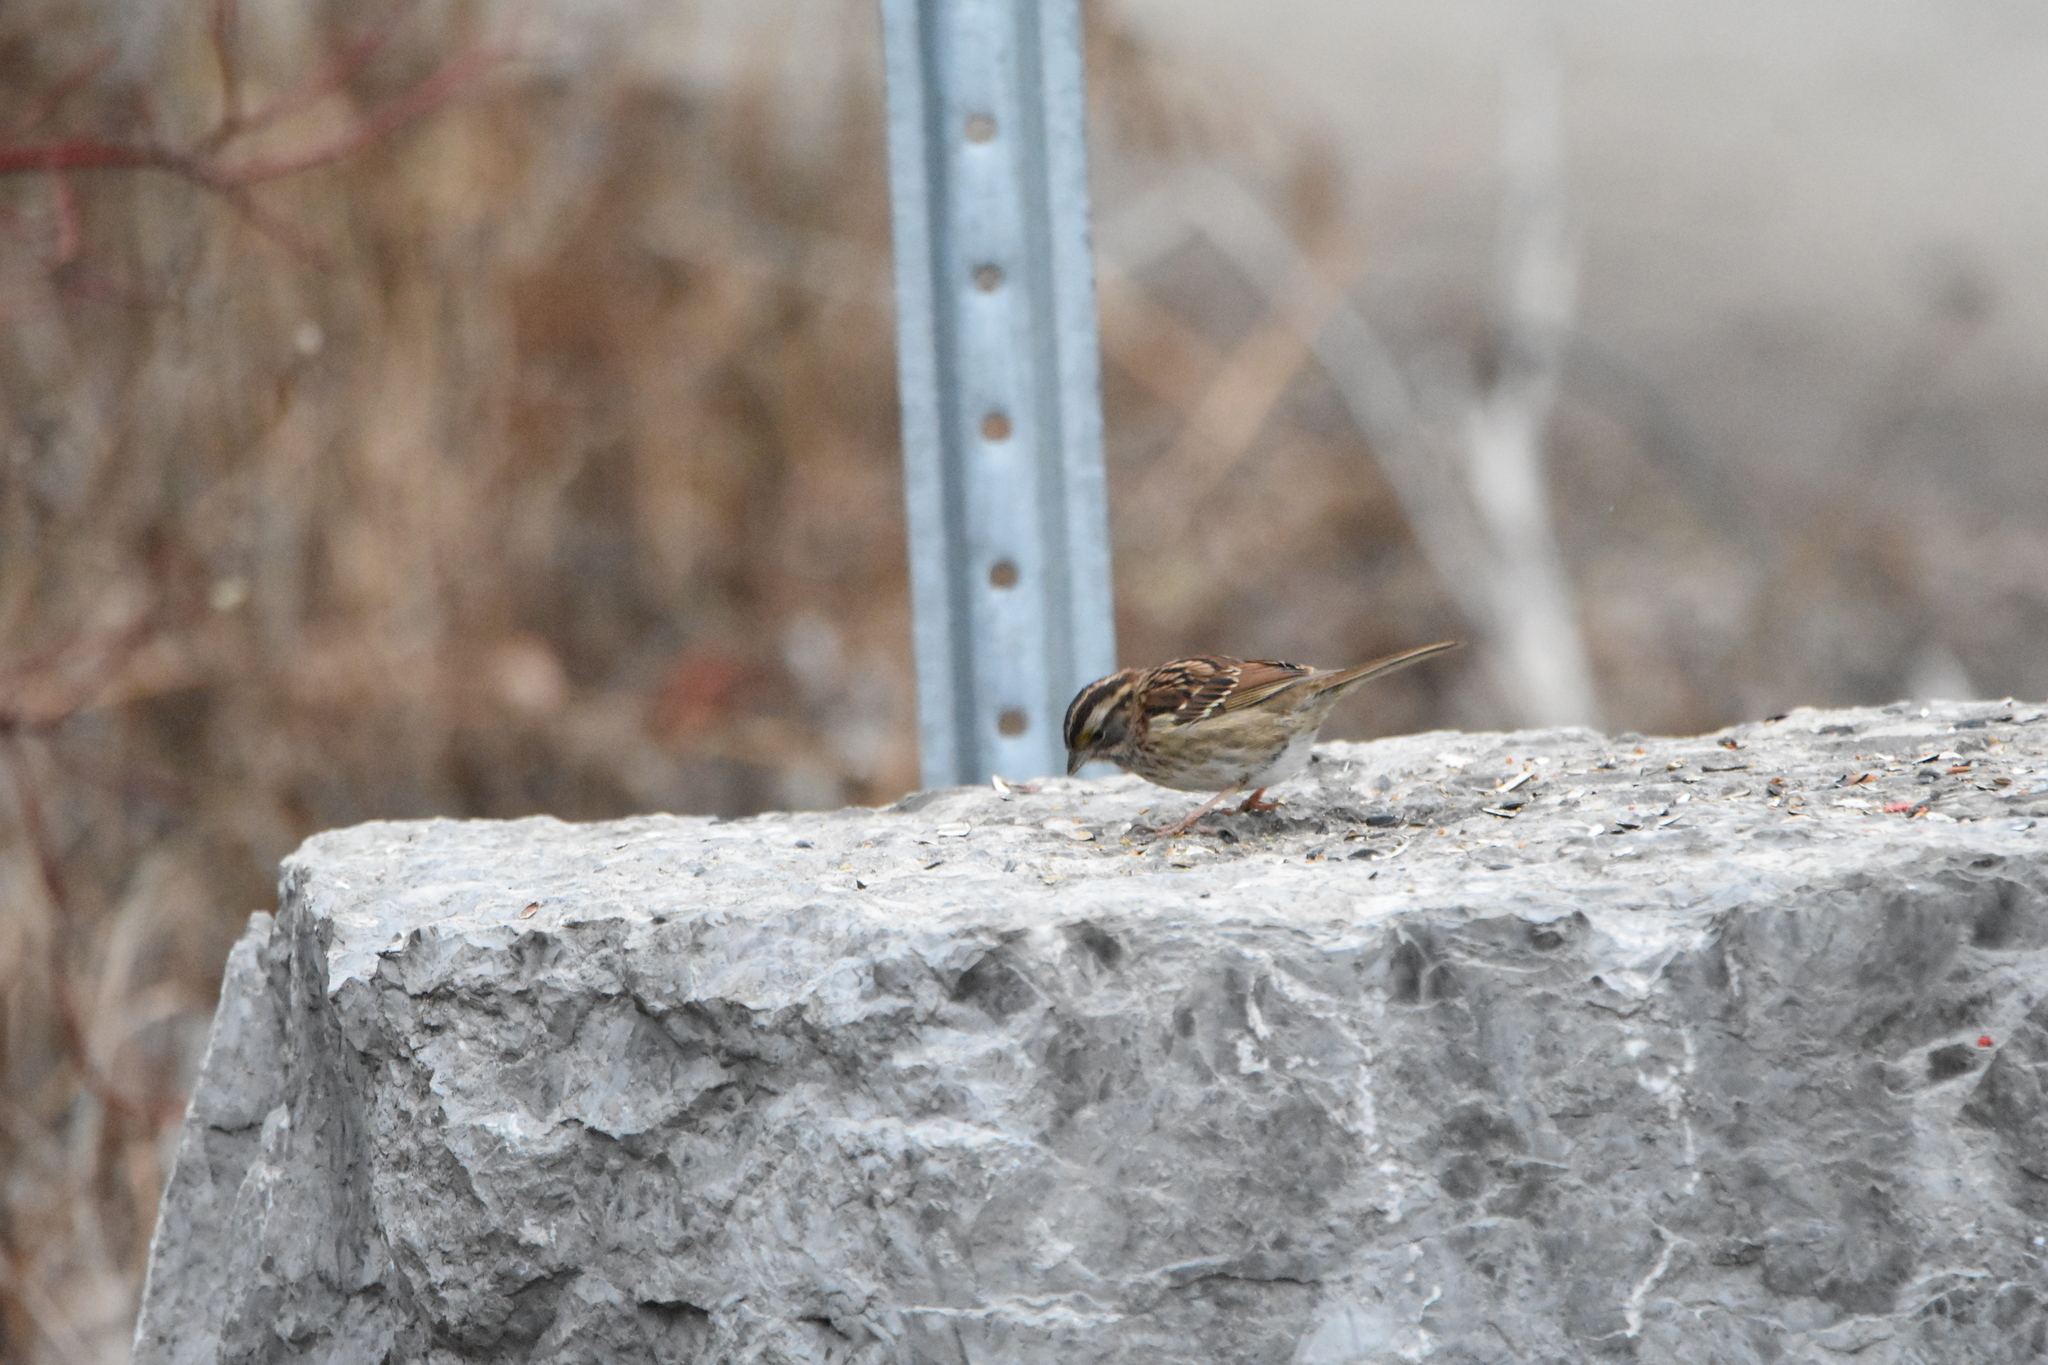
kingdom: Animalia
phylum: Chordata
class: Aves
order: Passeriformes
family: Passerellidae
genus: Zonotrichia
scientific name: Zonotrichia albicollis
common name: White-throated sparrow
